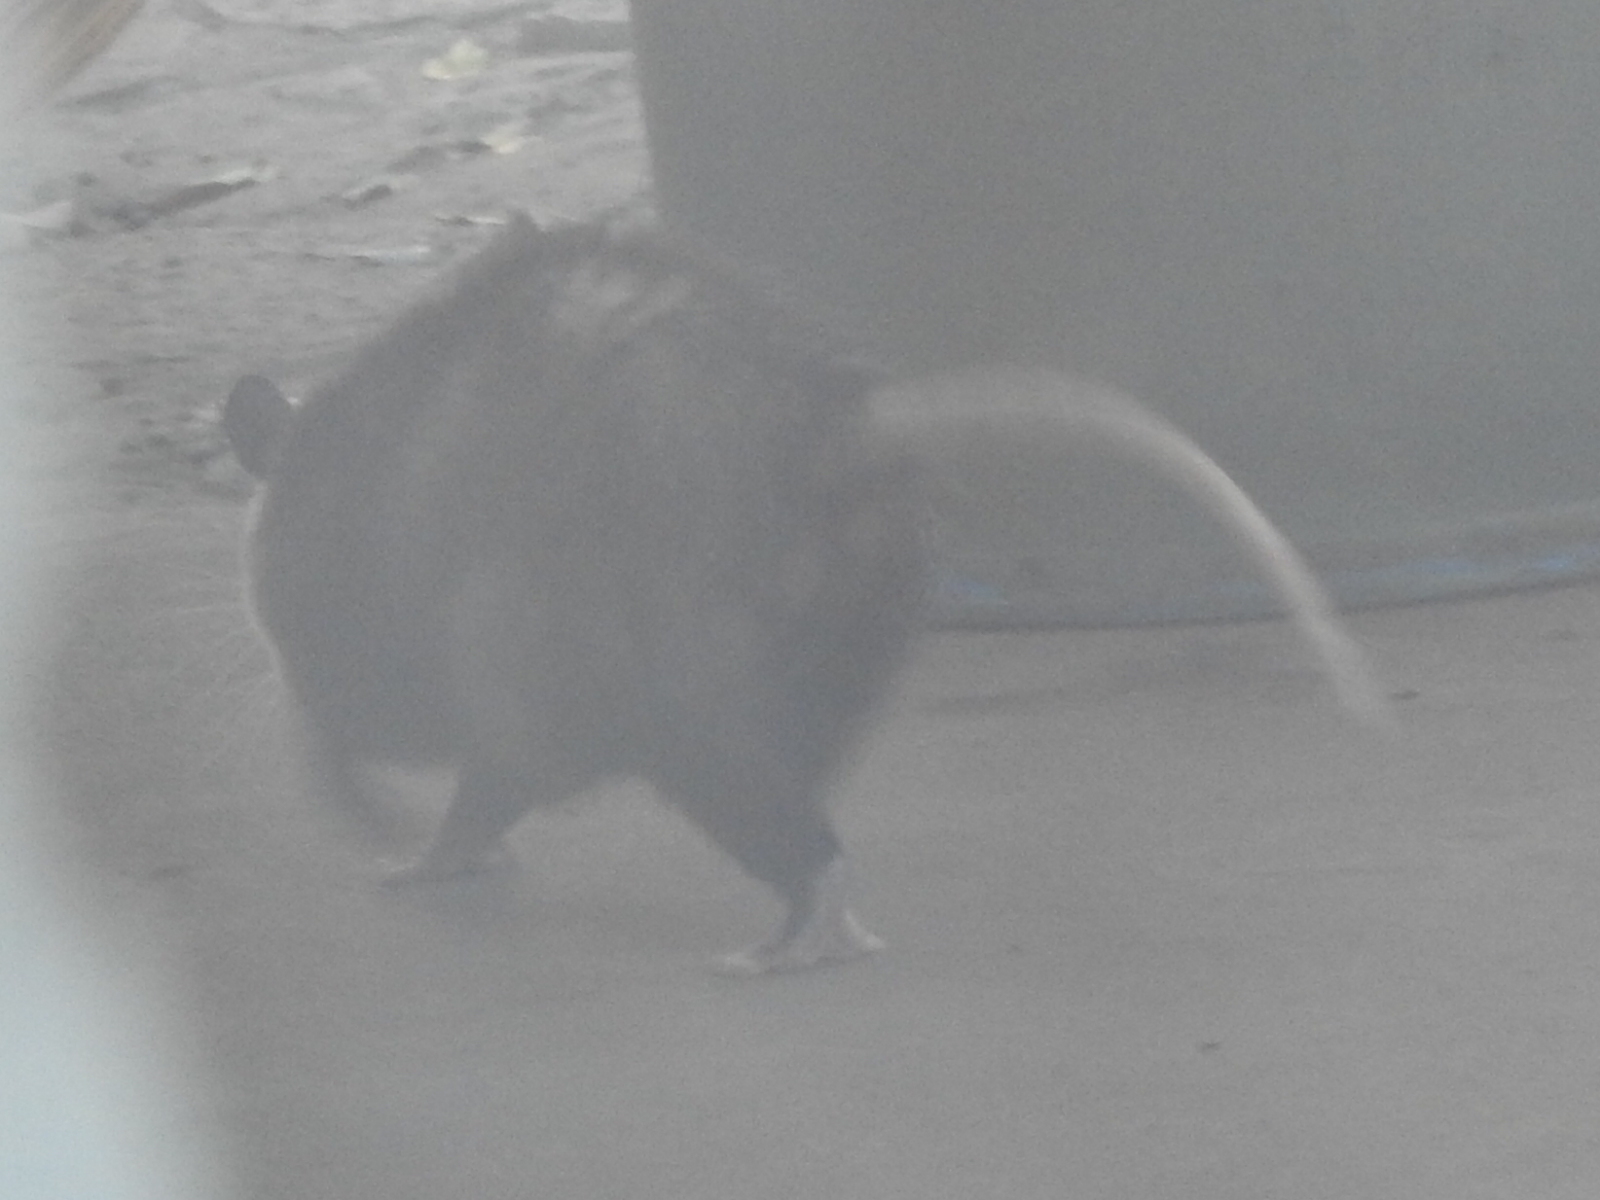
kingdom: Animalia
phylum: Chordata
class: Mammalia
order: Didelphimorphia
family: Didelphidae
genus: Didelphis
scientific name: Didelphis virginiana
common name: Virginia opossum
